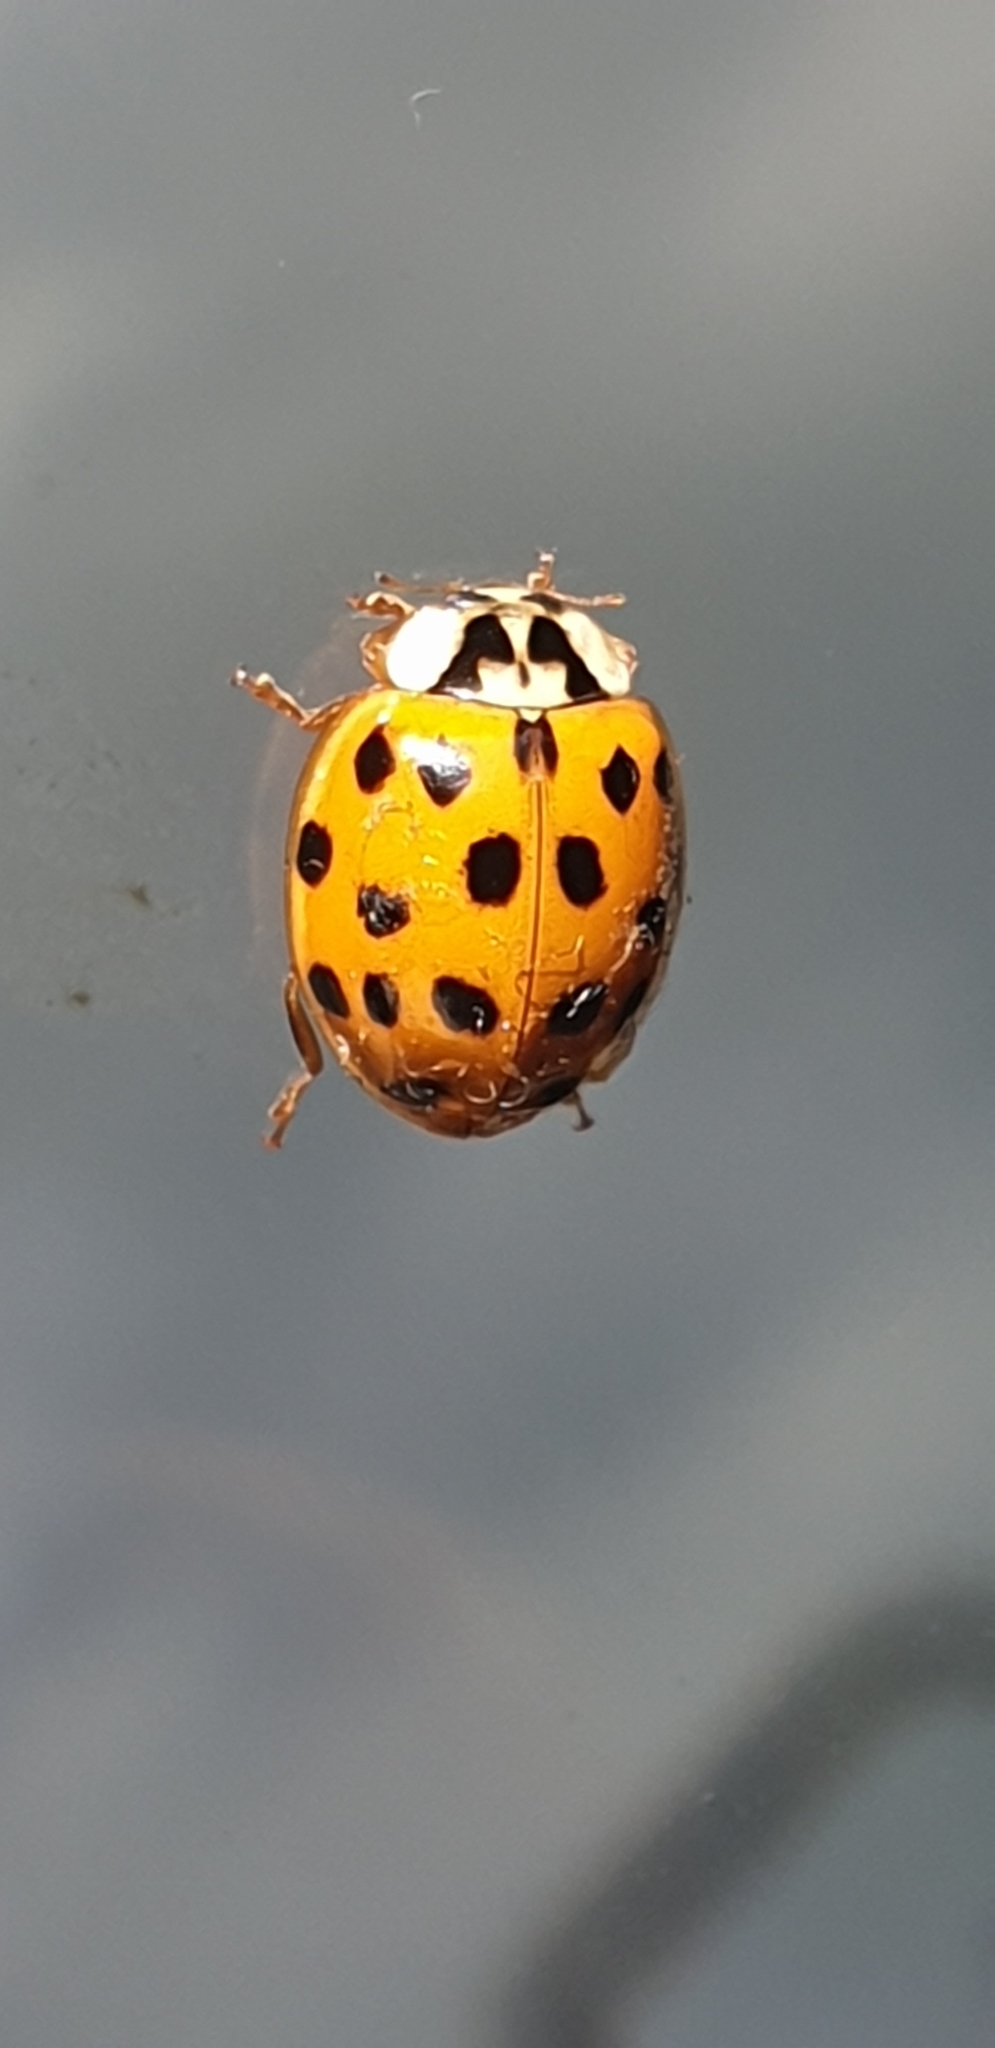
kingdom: Animalia
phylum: Arthropoda
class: Insecta
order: Coleoptera
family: Coccinellidae
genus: Harmonia
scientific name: Harmonia axyridis
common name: Harlequin ladybird
